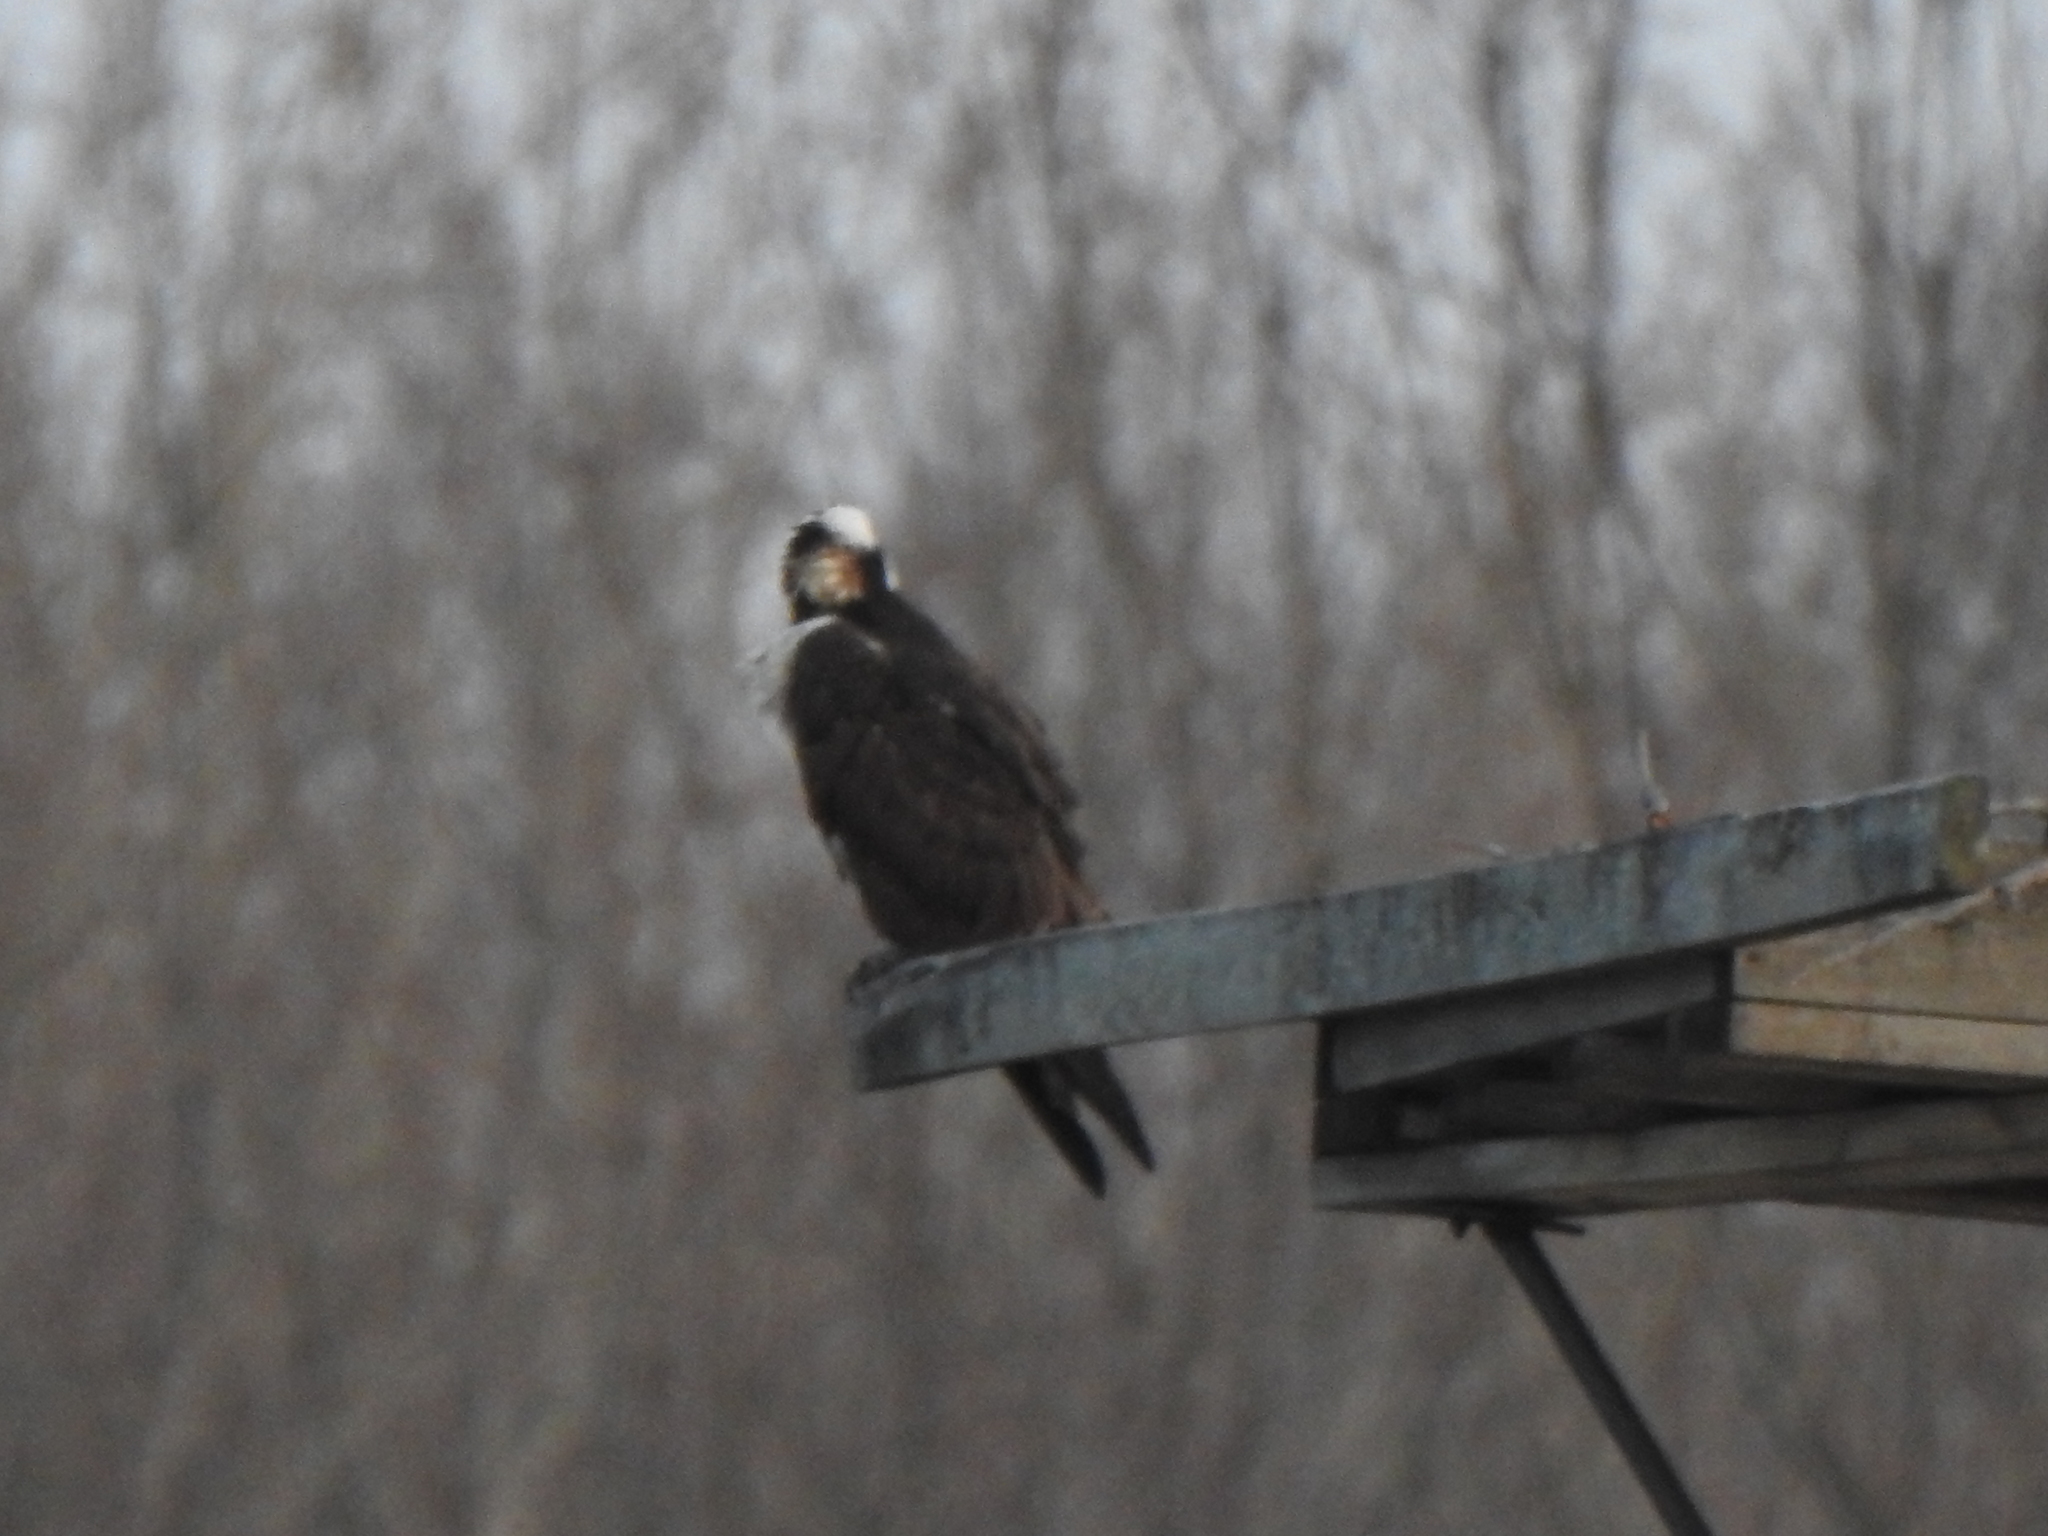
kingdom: Animalia
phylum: Chordata
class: Aves
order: Accipitriformes
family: Pandionidae
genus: Pandion
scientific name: Pandion haliaetus
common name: Osprey
